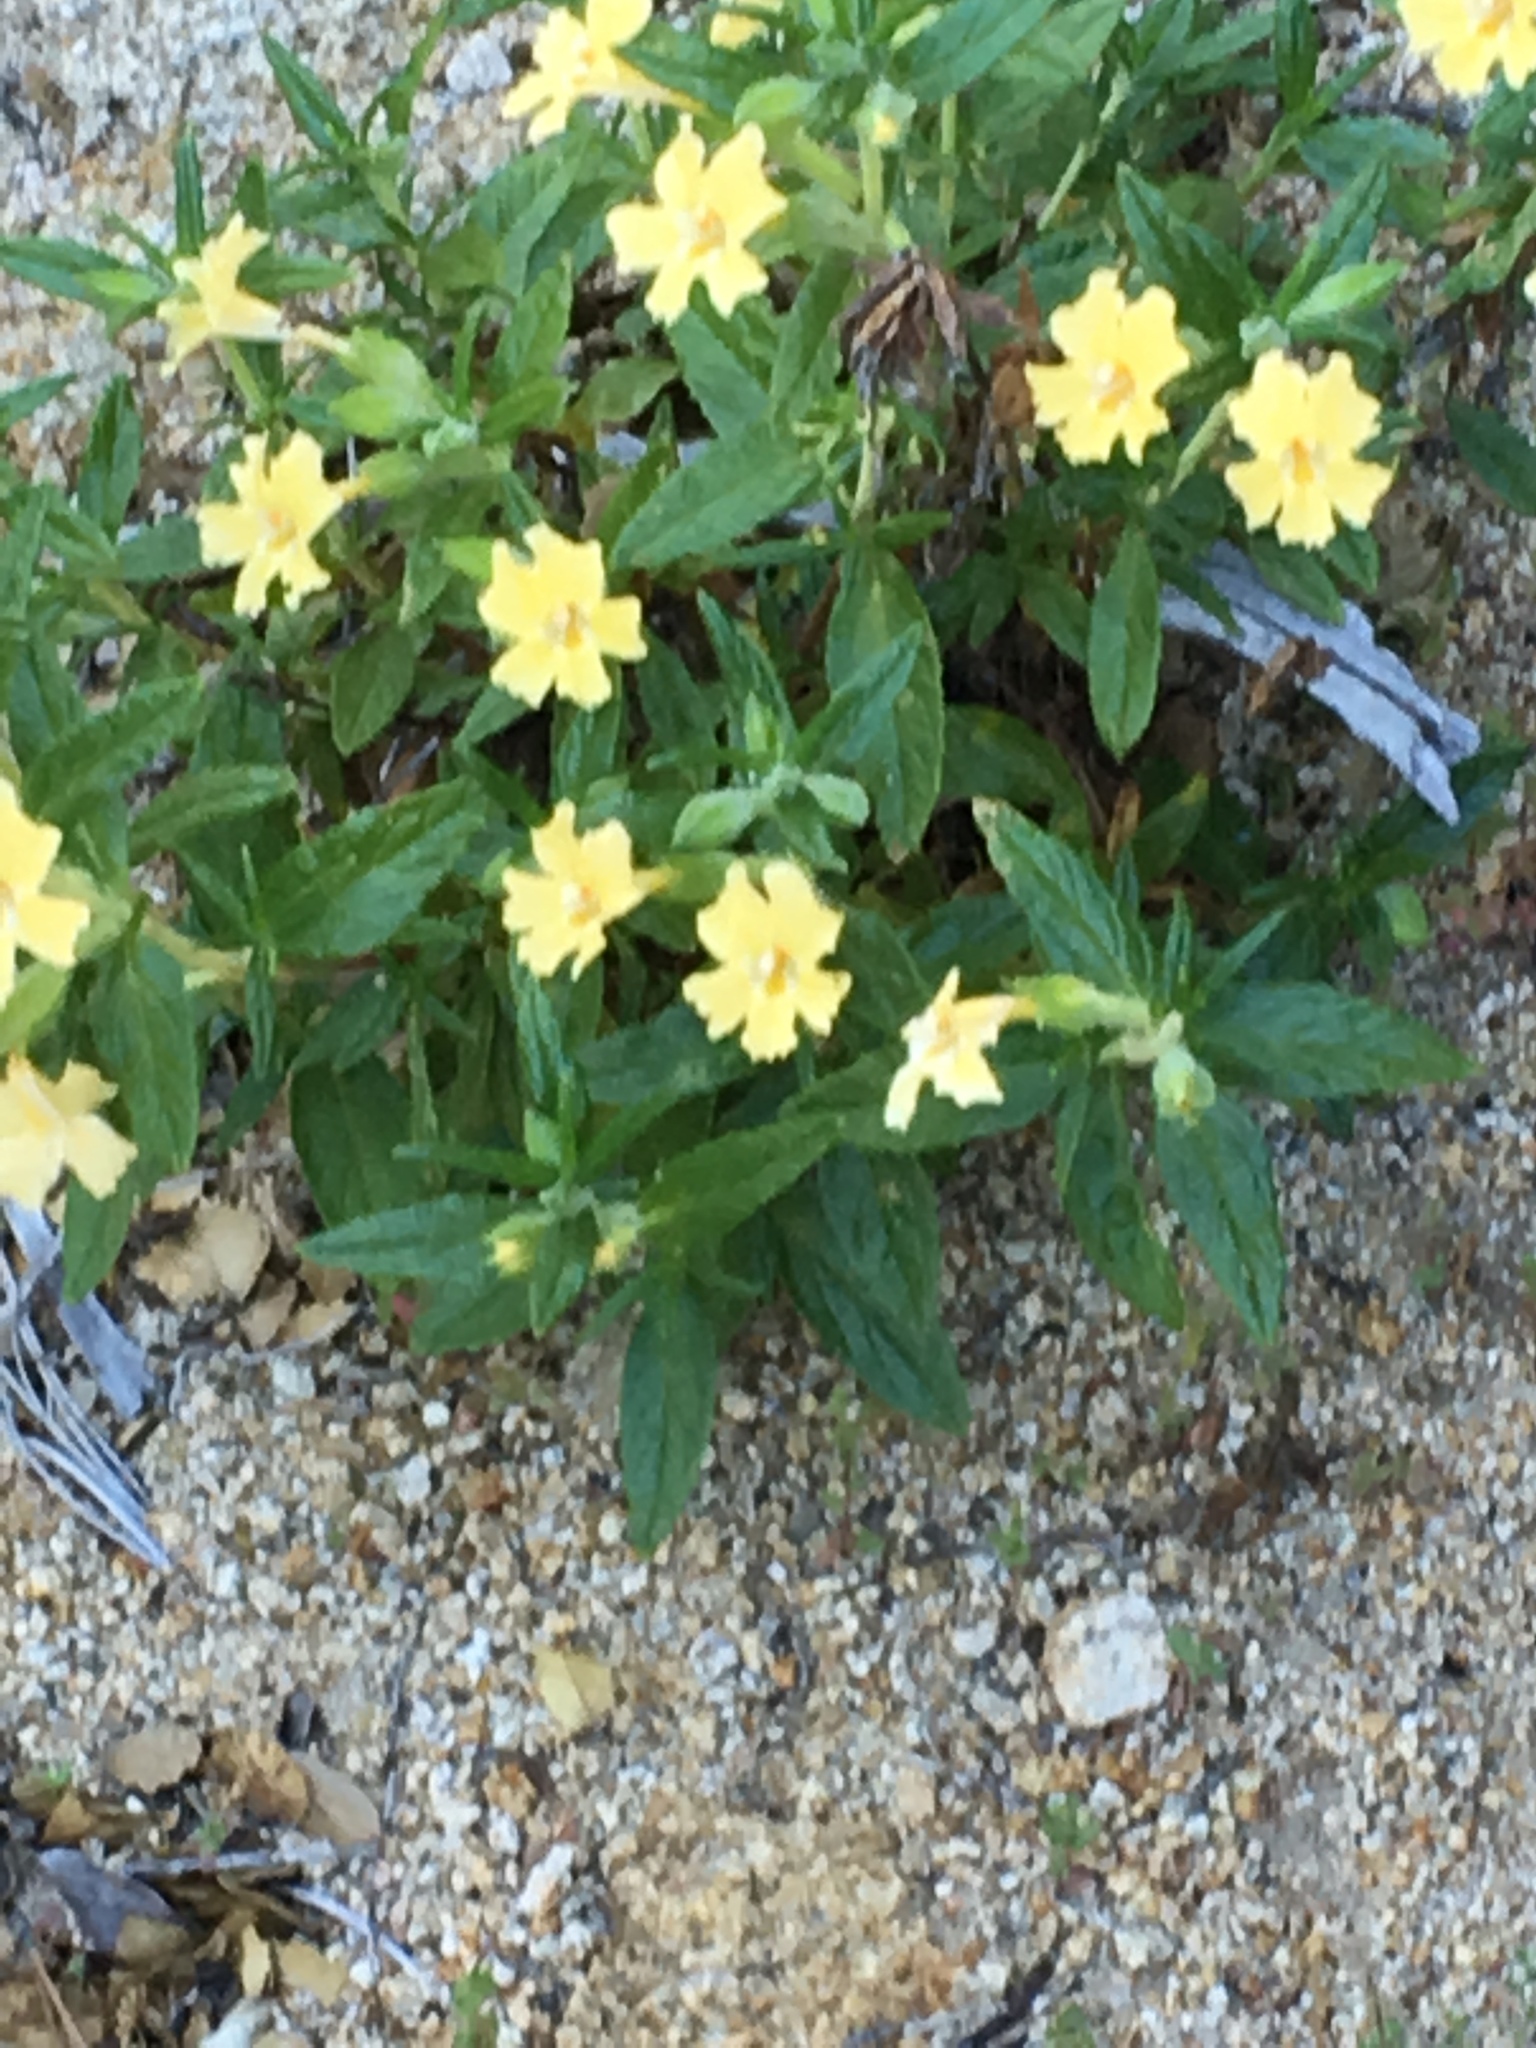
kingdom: Plantae
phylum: Tracheophyta
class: Magnoliopsida
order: Lamiales
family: Phrymaceae
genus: Diplacus
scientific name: Diplacus calycinus
